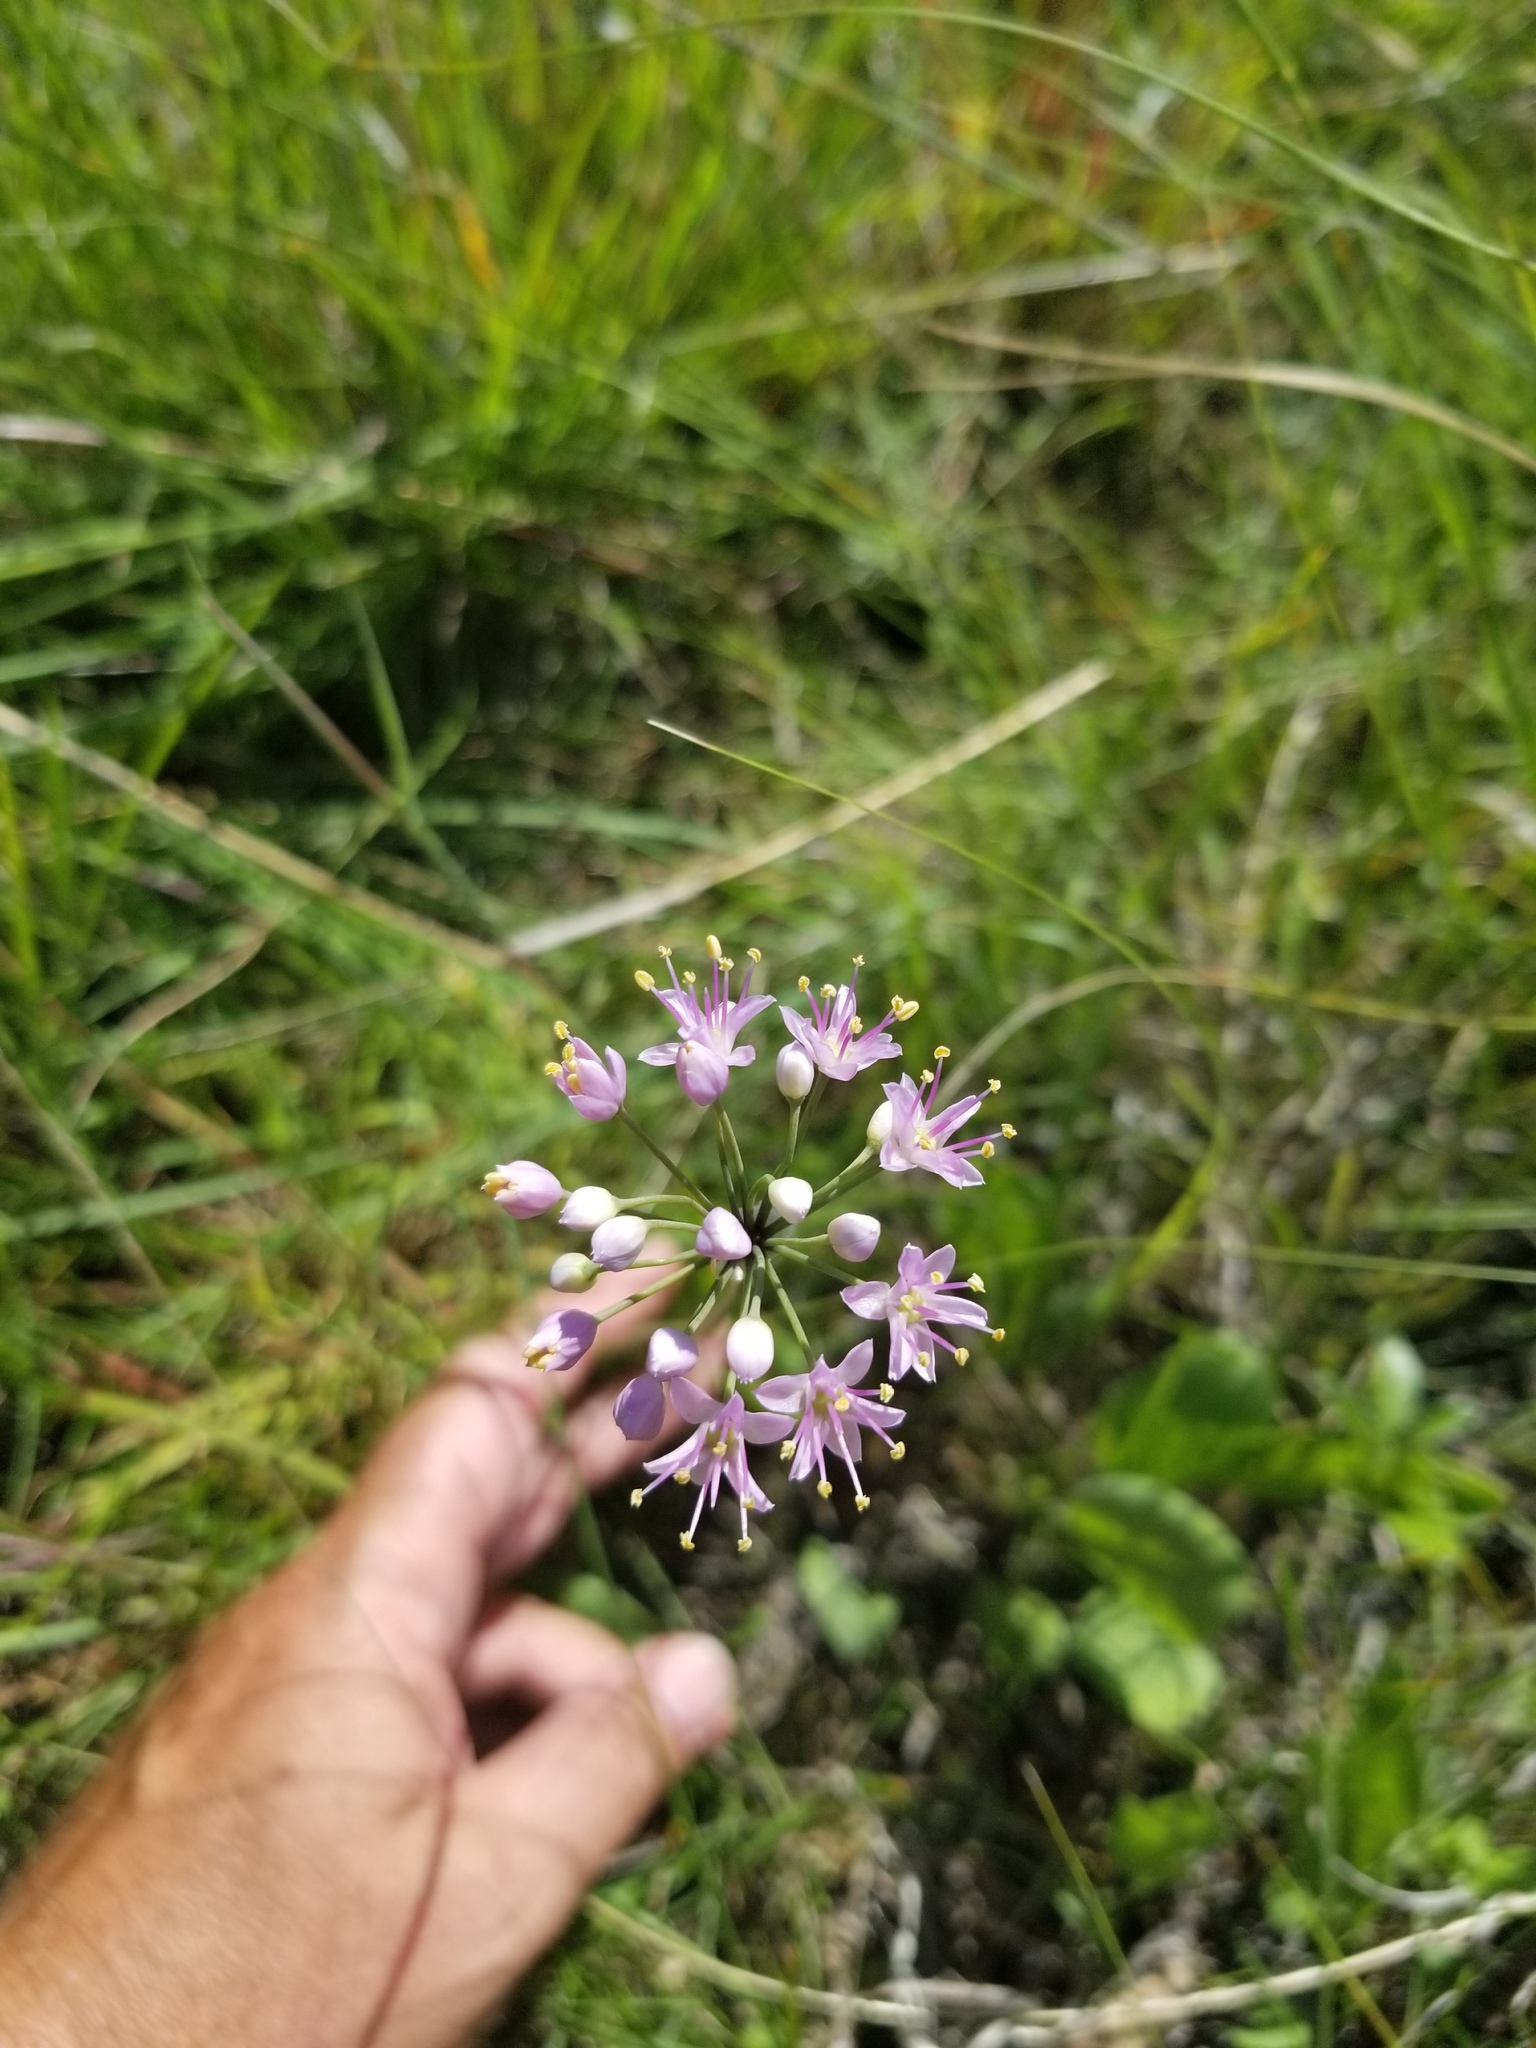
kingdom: Plantae
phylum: Tracheophyta
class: Liliopsida
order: Asparagales
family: Amaryllidaceae
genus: Allium
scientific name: Allium stellatum
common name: Autumn onion
